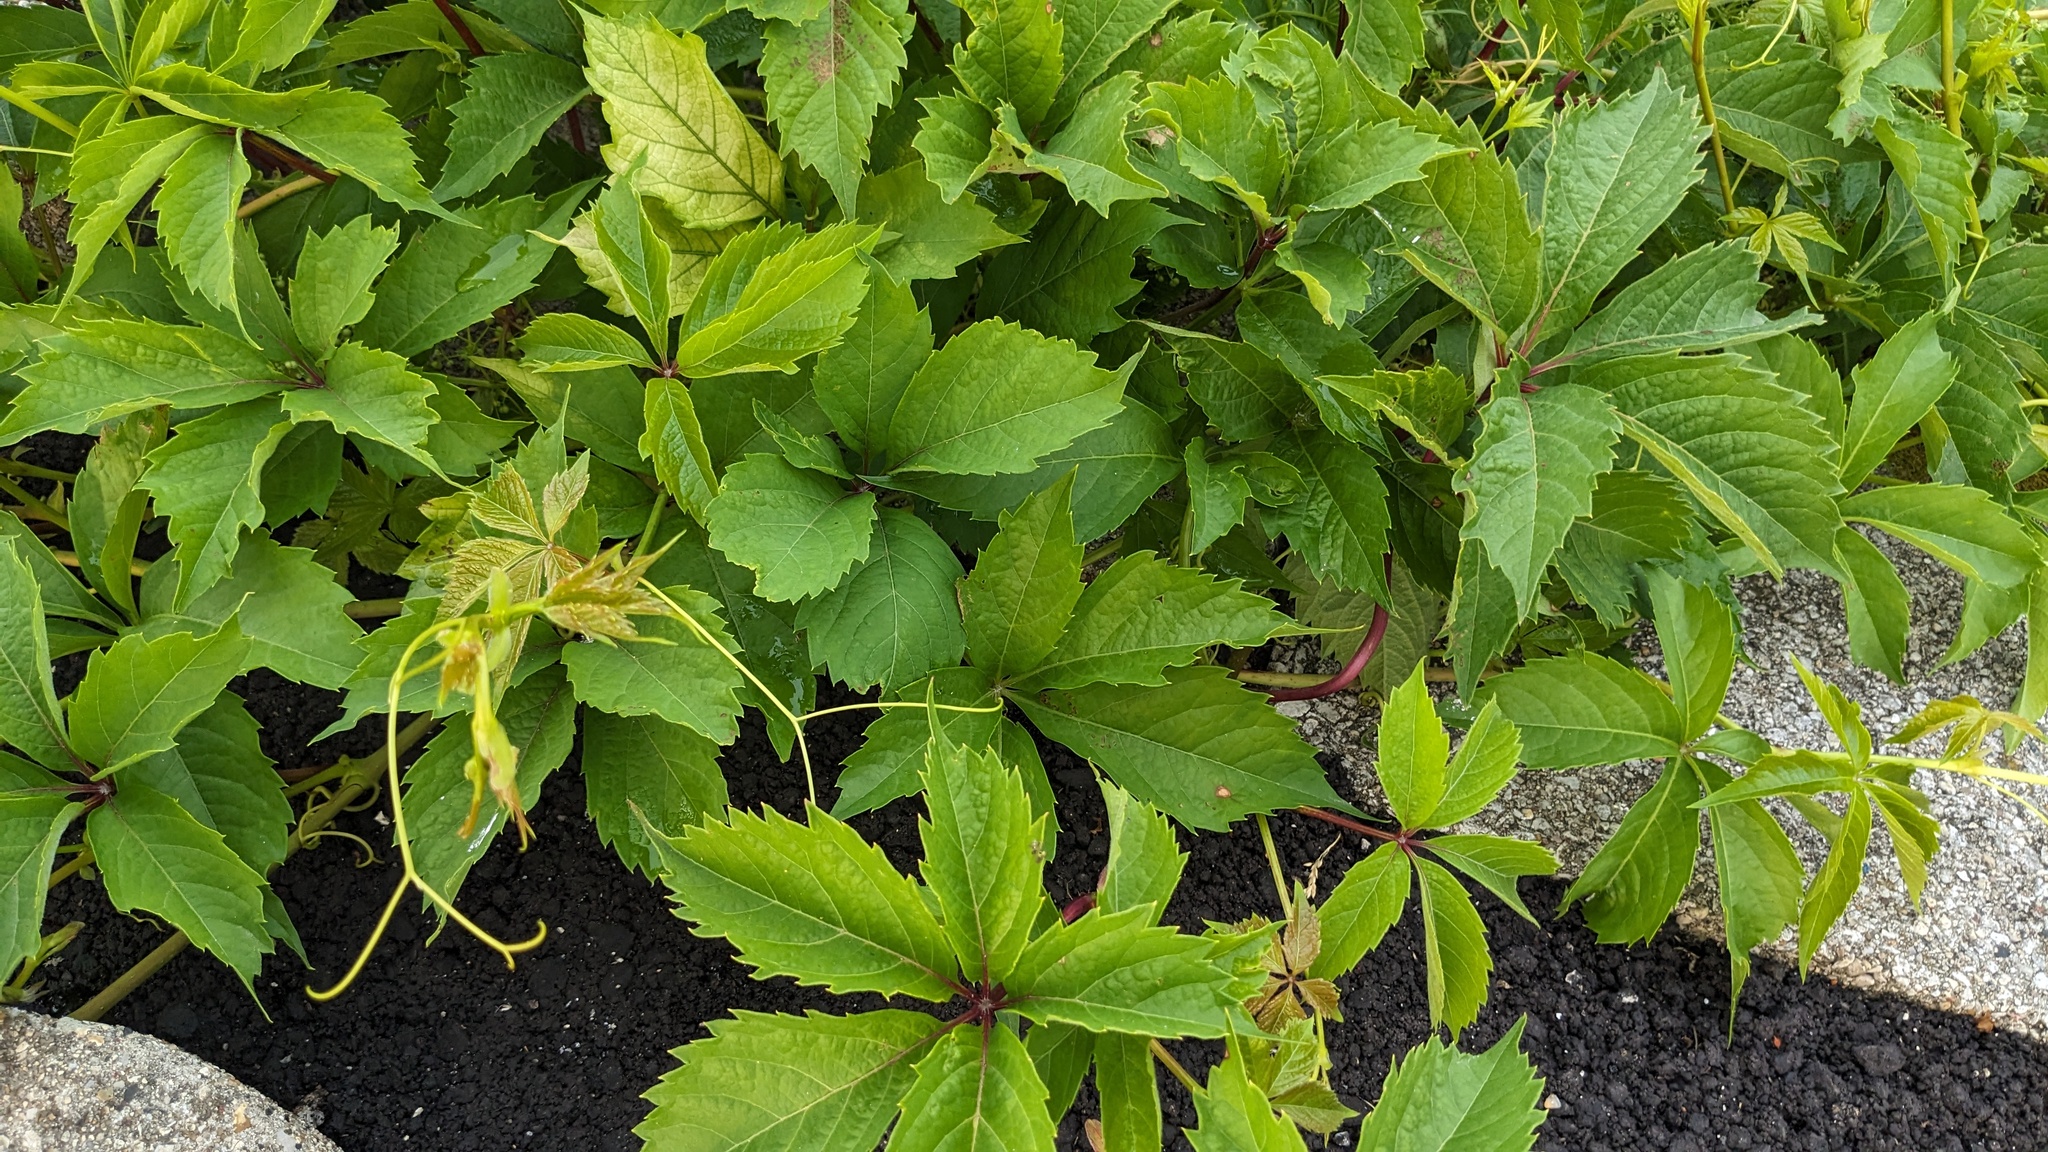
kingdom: Plantae
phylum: Tracheophyta
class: Magnoliopsida
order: Vitales
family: Vitaceae
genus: Parthenocissus
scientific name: Parthenocissus inserta
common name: False virginia-creeper
